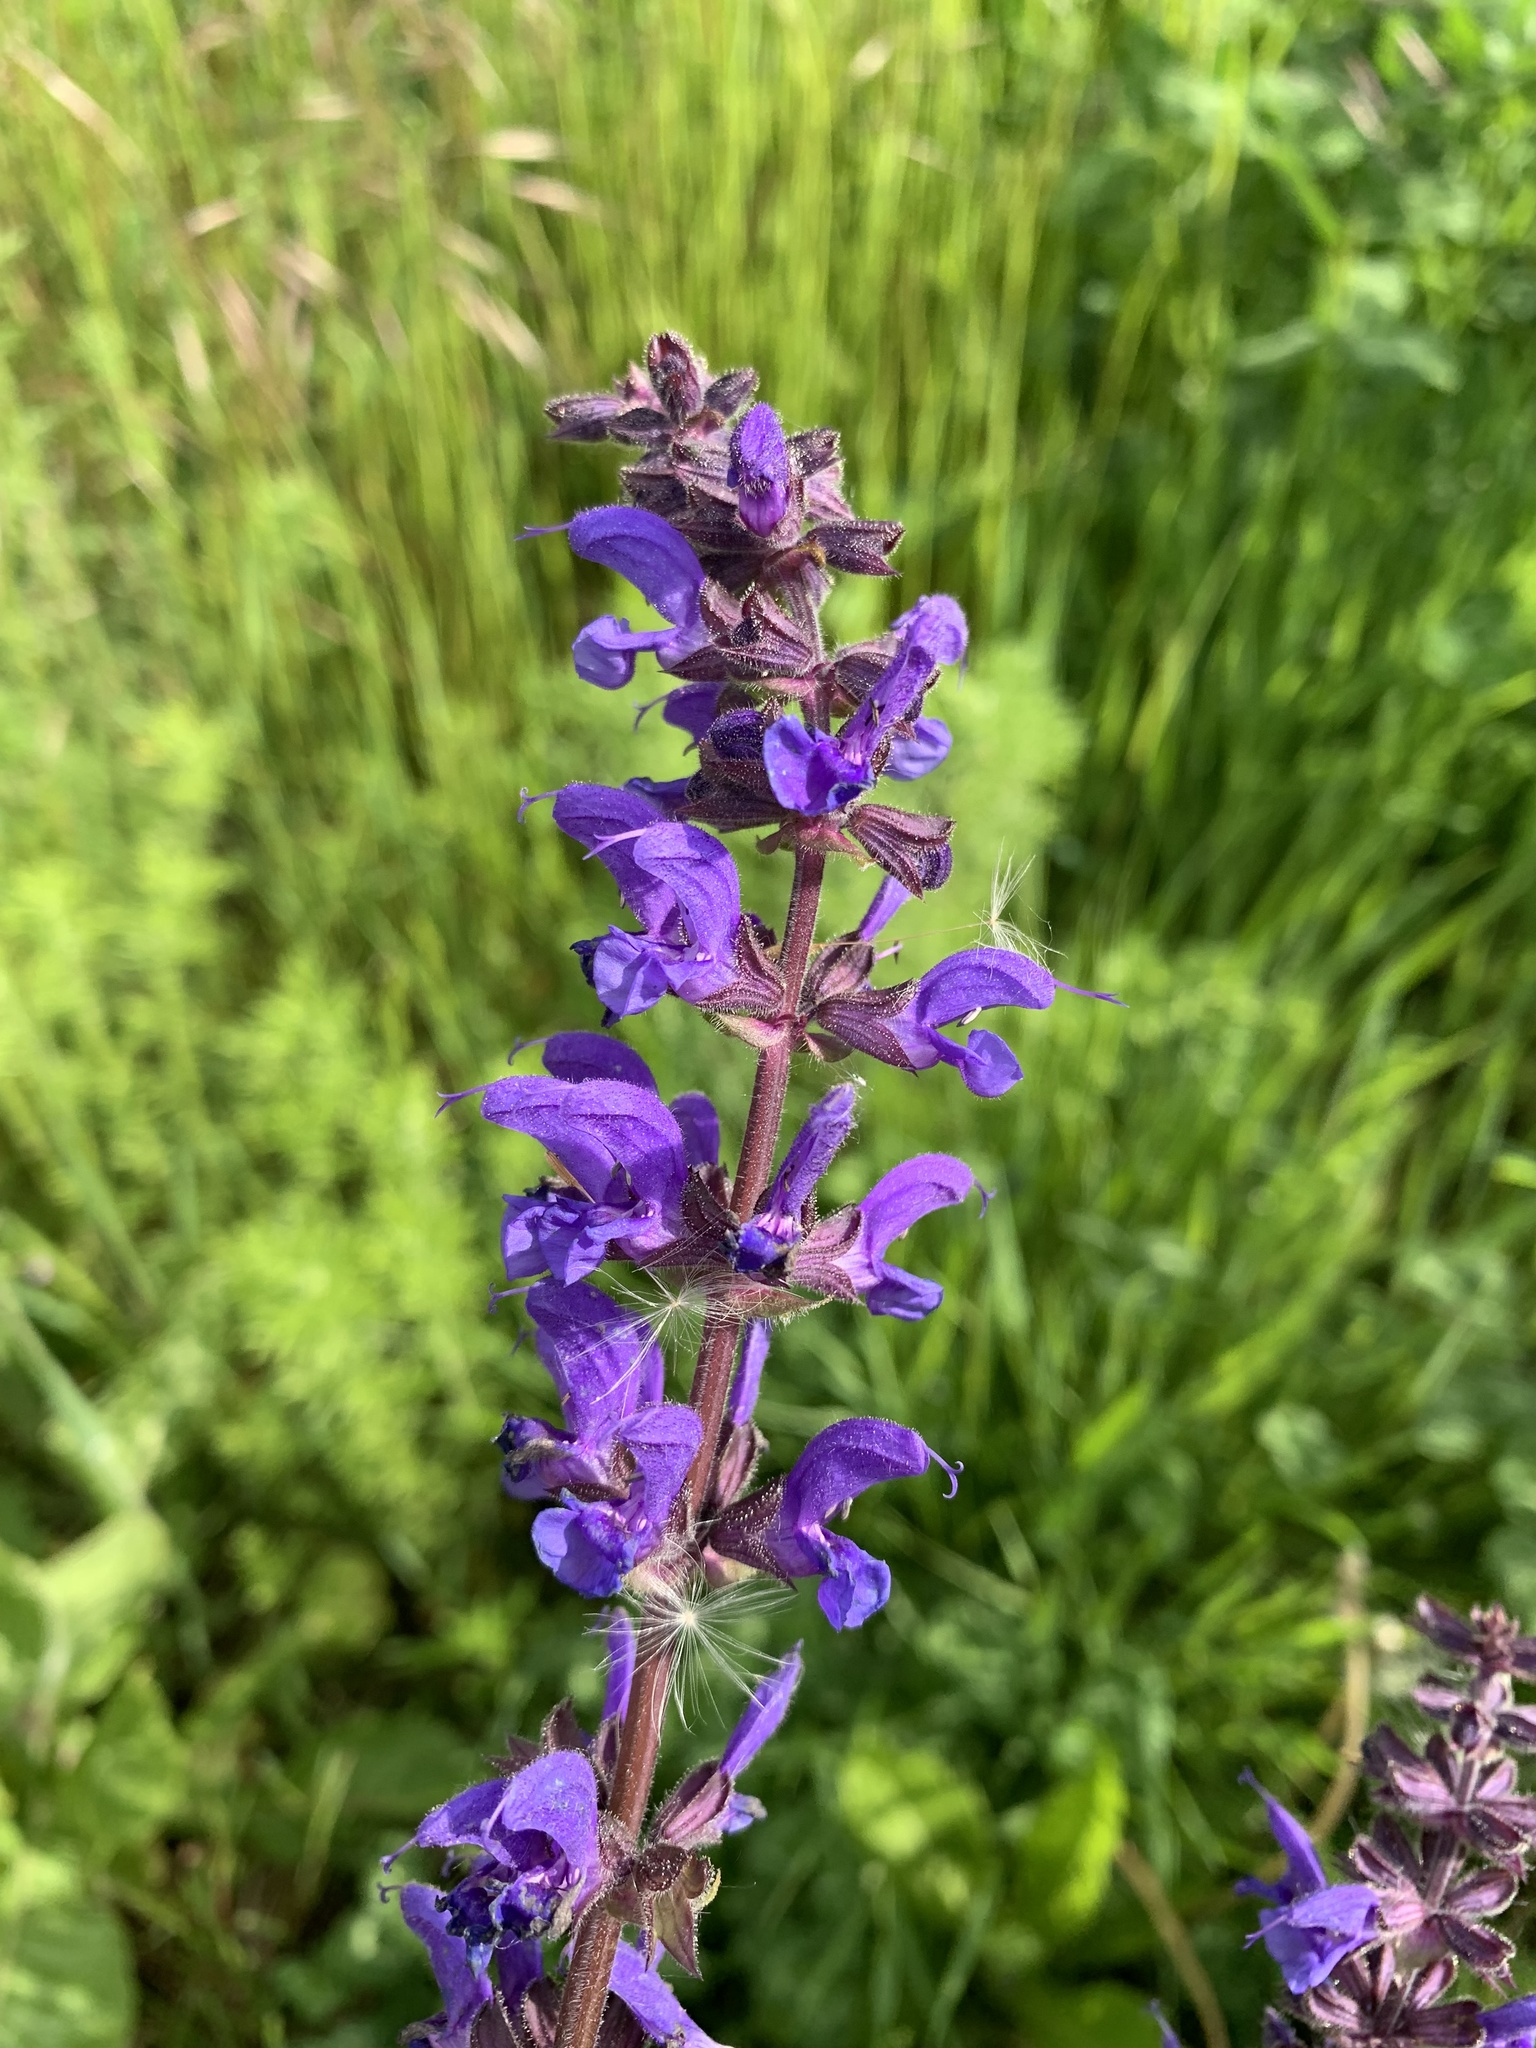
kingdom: Plantae
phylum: Tracheophyta
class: Magnoliopsida
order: Lamiales
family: Lamiaceae
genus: Salvia
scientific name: Salvia nemorosa
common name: Balkan clary
